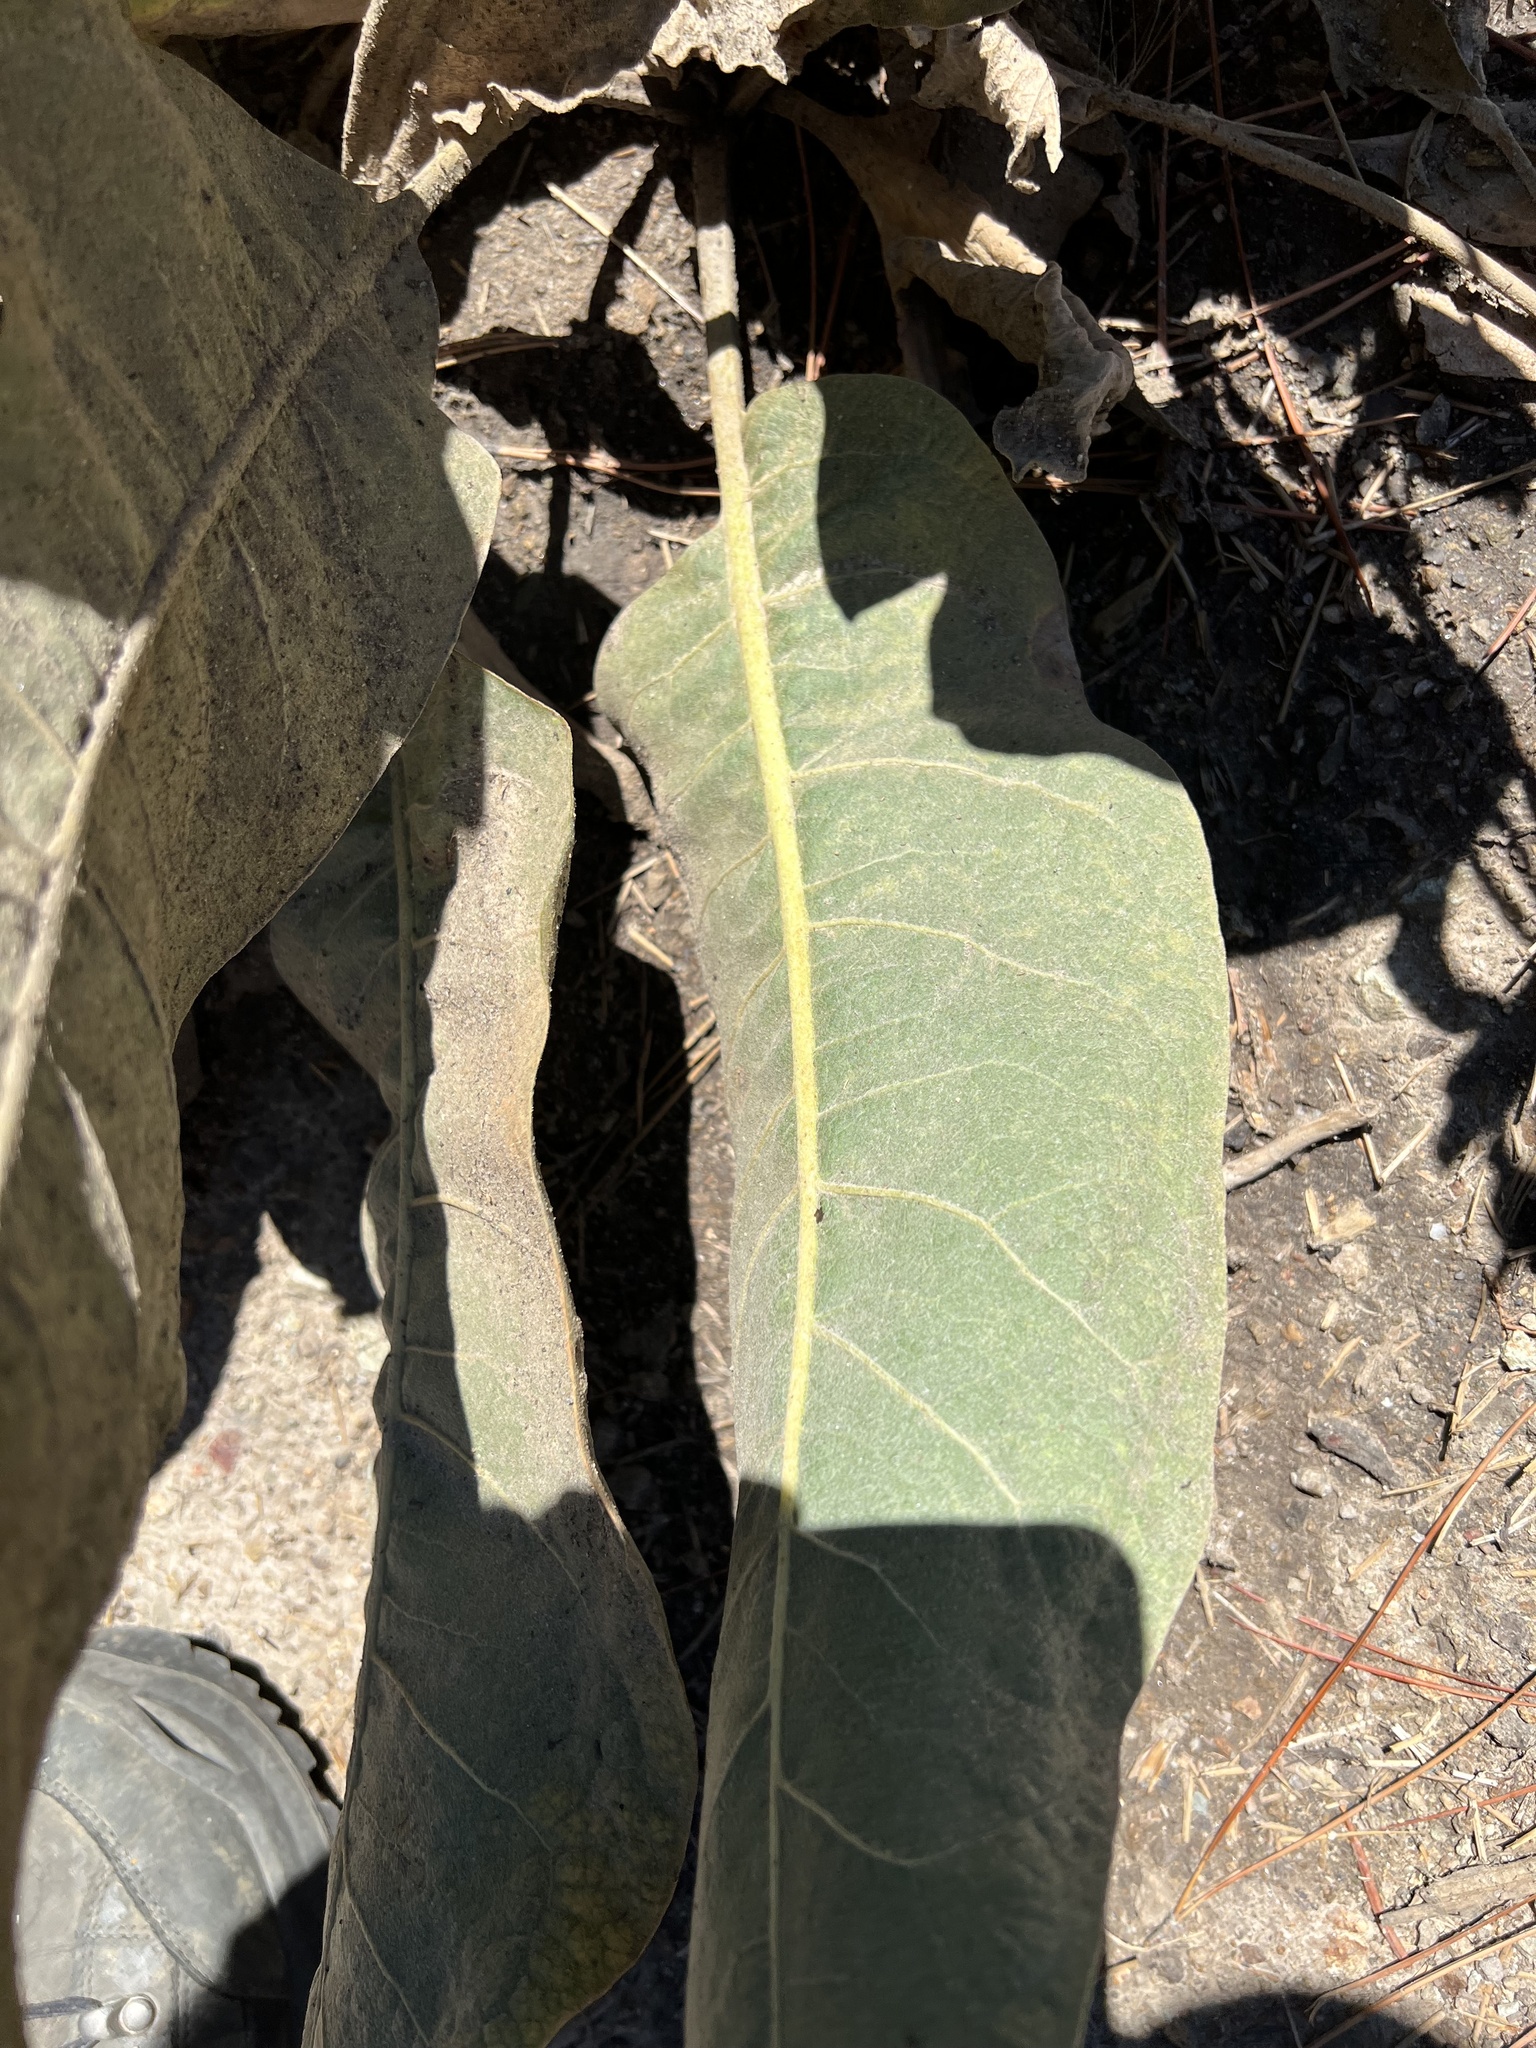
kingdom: Plantae
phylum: Tracheophyta
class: Magnoliopsida
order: Asterales
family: Asteraceae
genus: Wyethia
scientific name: Wyethia mollis
